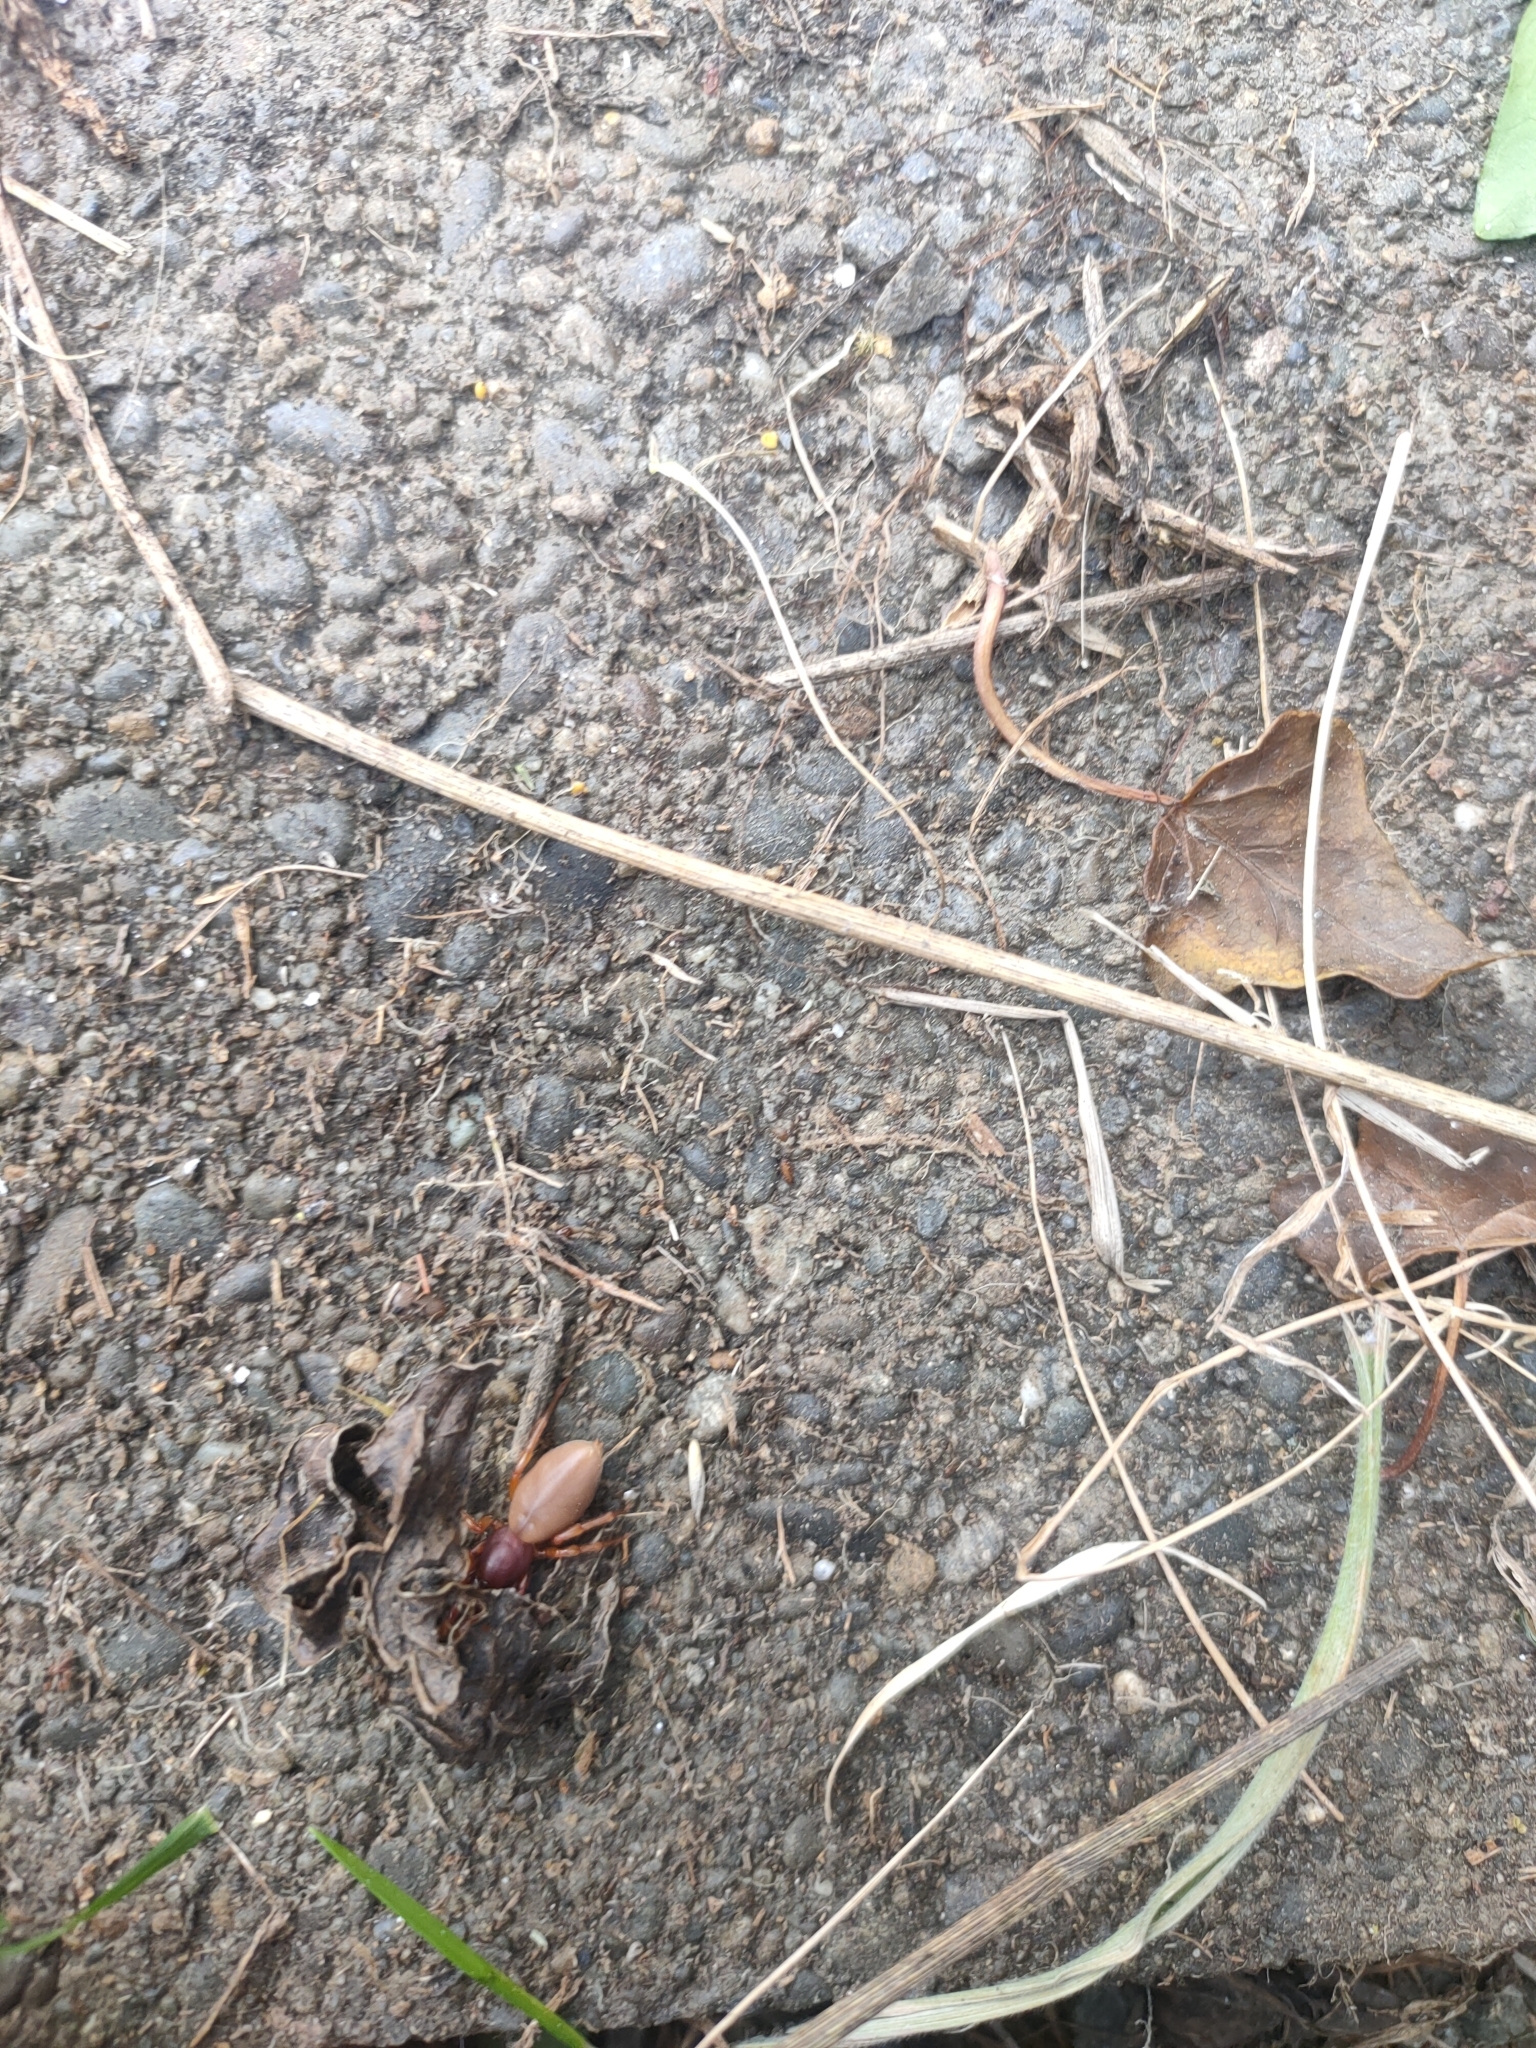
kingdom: Animalia
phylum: Arthropoda
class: Arachnida
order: Araneae
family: Dysderidae
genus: Dysdera
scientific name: Dysdera crocata
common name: Woodlouse spider
